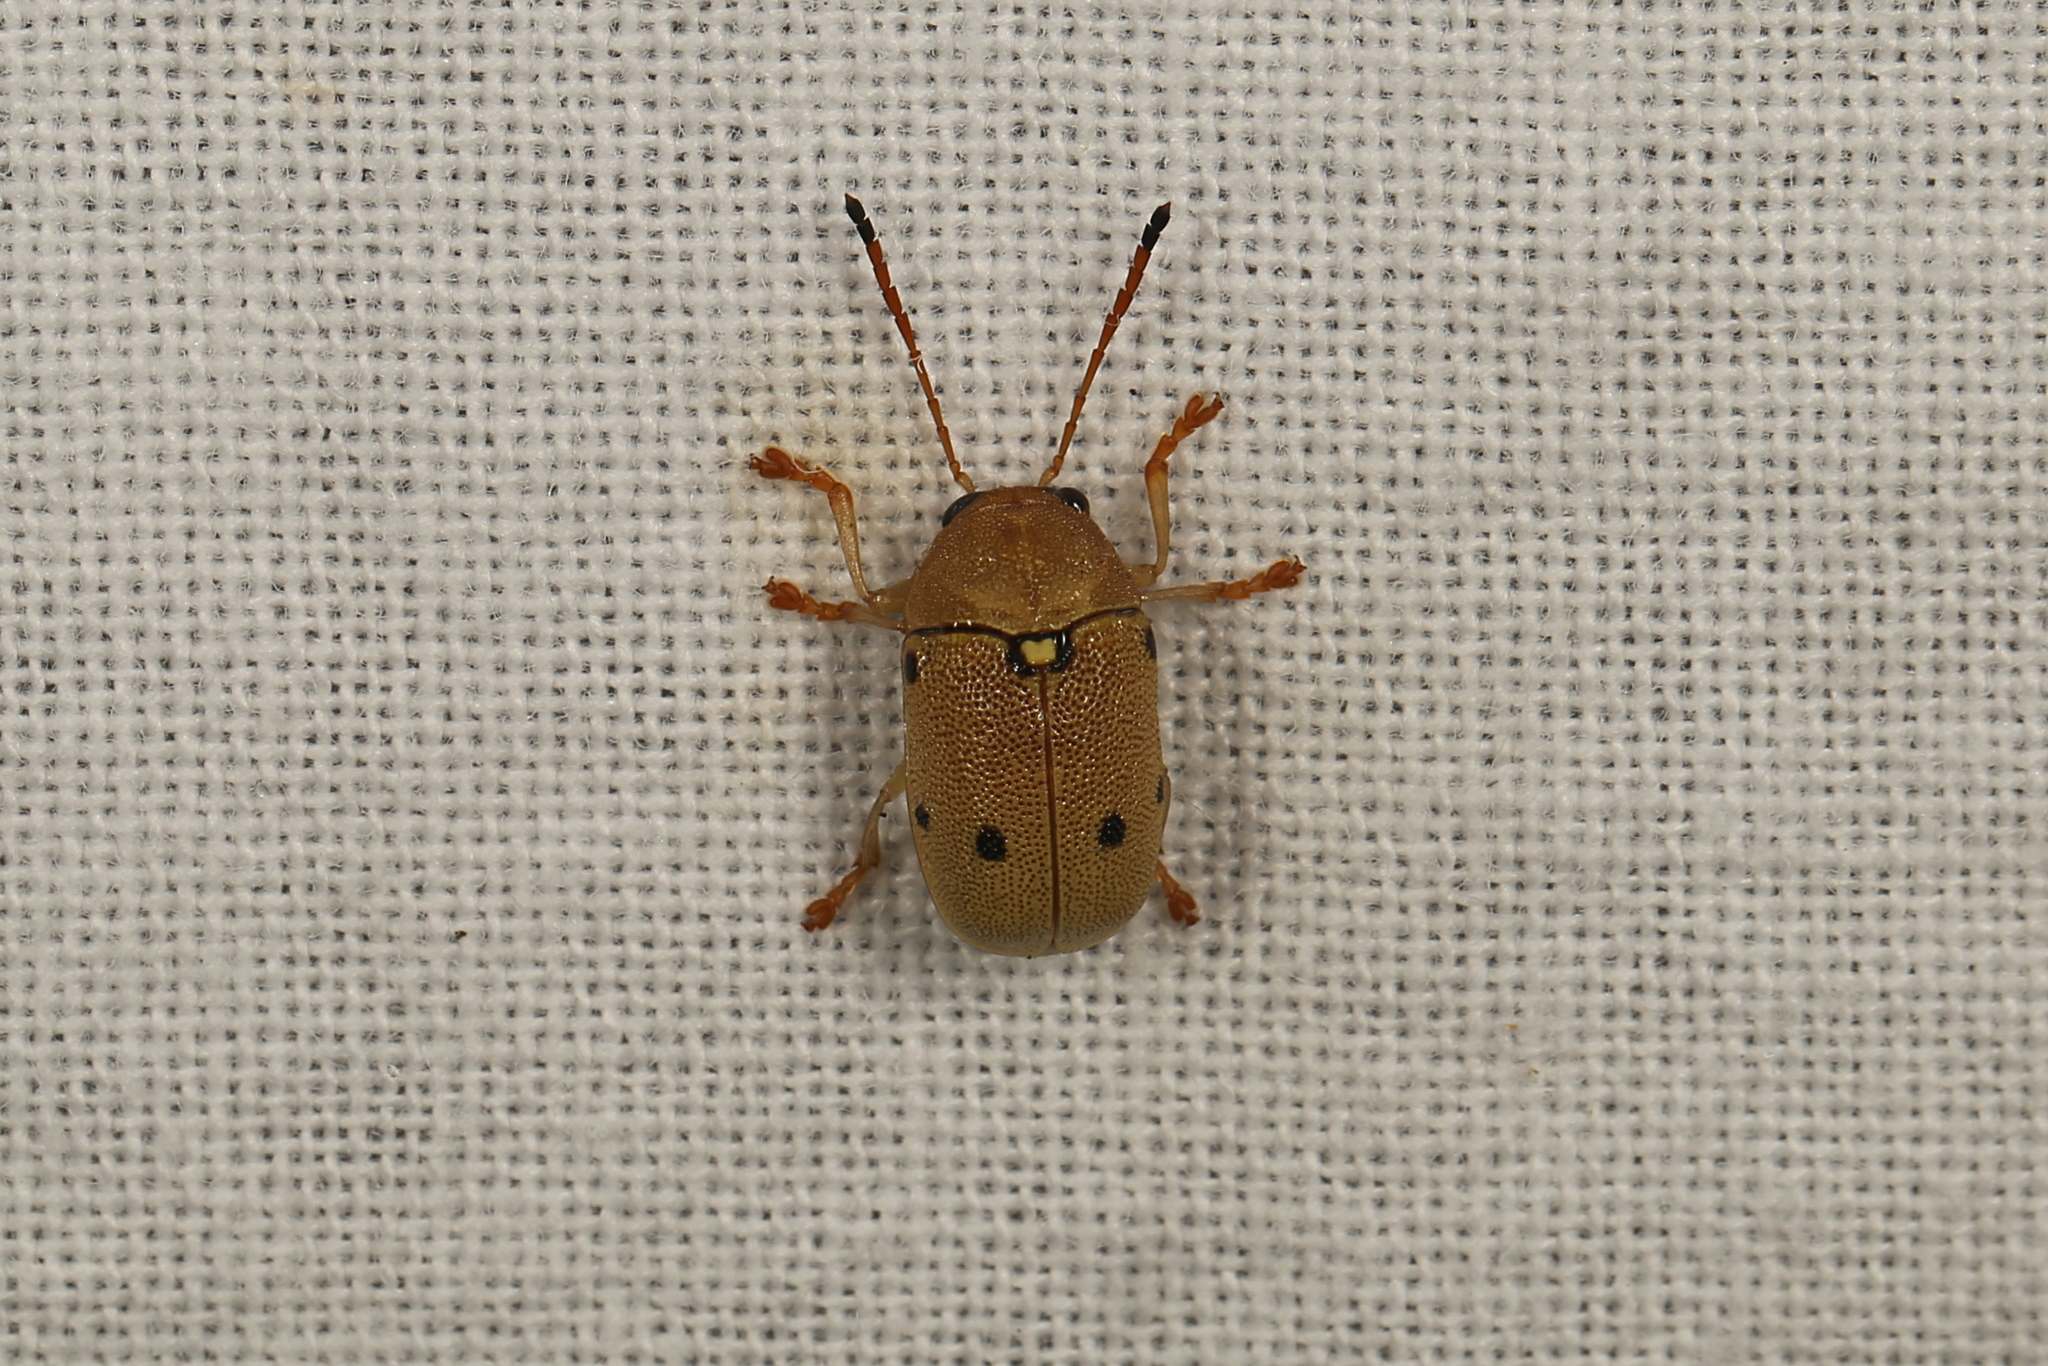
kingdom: Animalia
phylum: Arthropoda
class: Insecta
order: Coleoptera
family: Chrysomelidae
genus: Cadmus
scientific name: Cadmus
